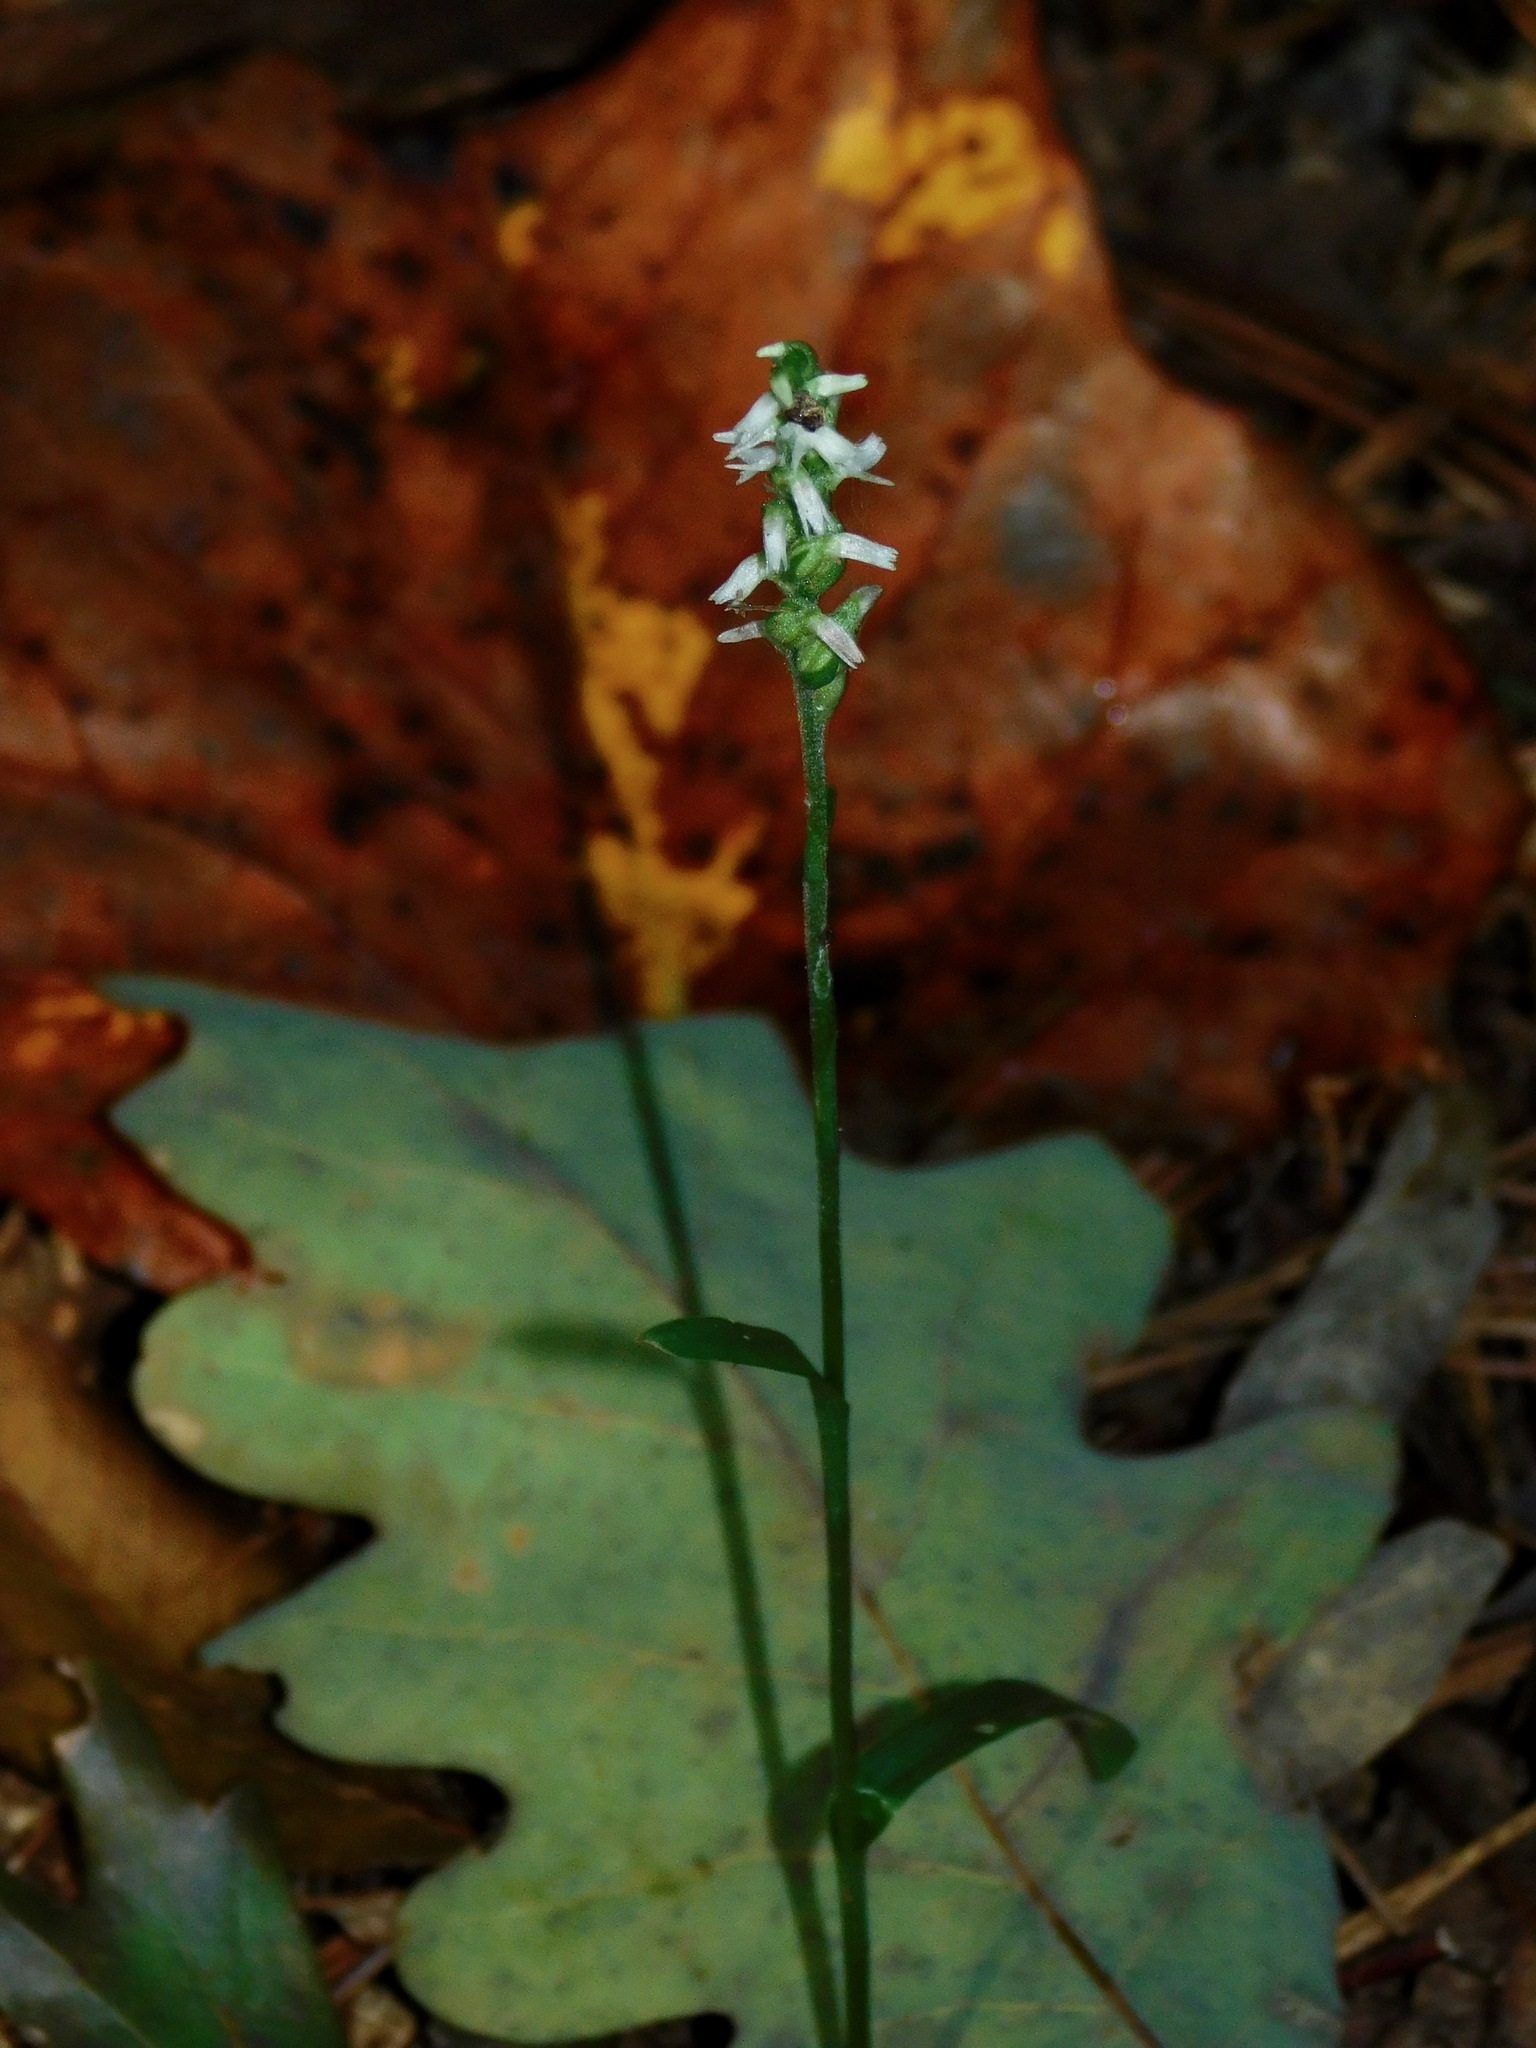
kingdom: Plantae
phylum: Tracheophyta
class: Liliopsida
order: Asparagales
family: Orchidaceae
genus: Spiranthes
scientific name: Spiranthes ovalis
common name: October ladies'-tresses
